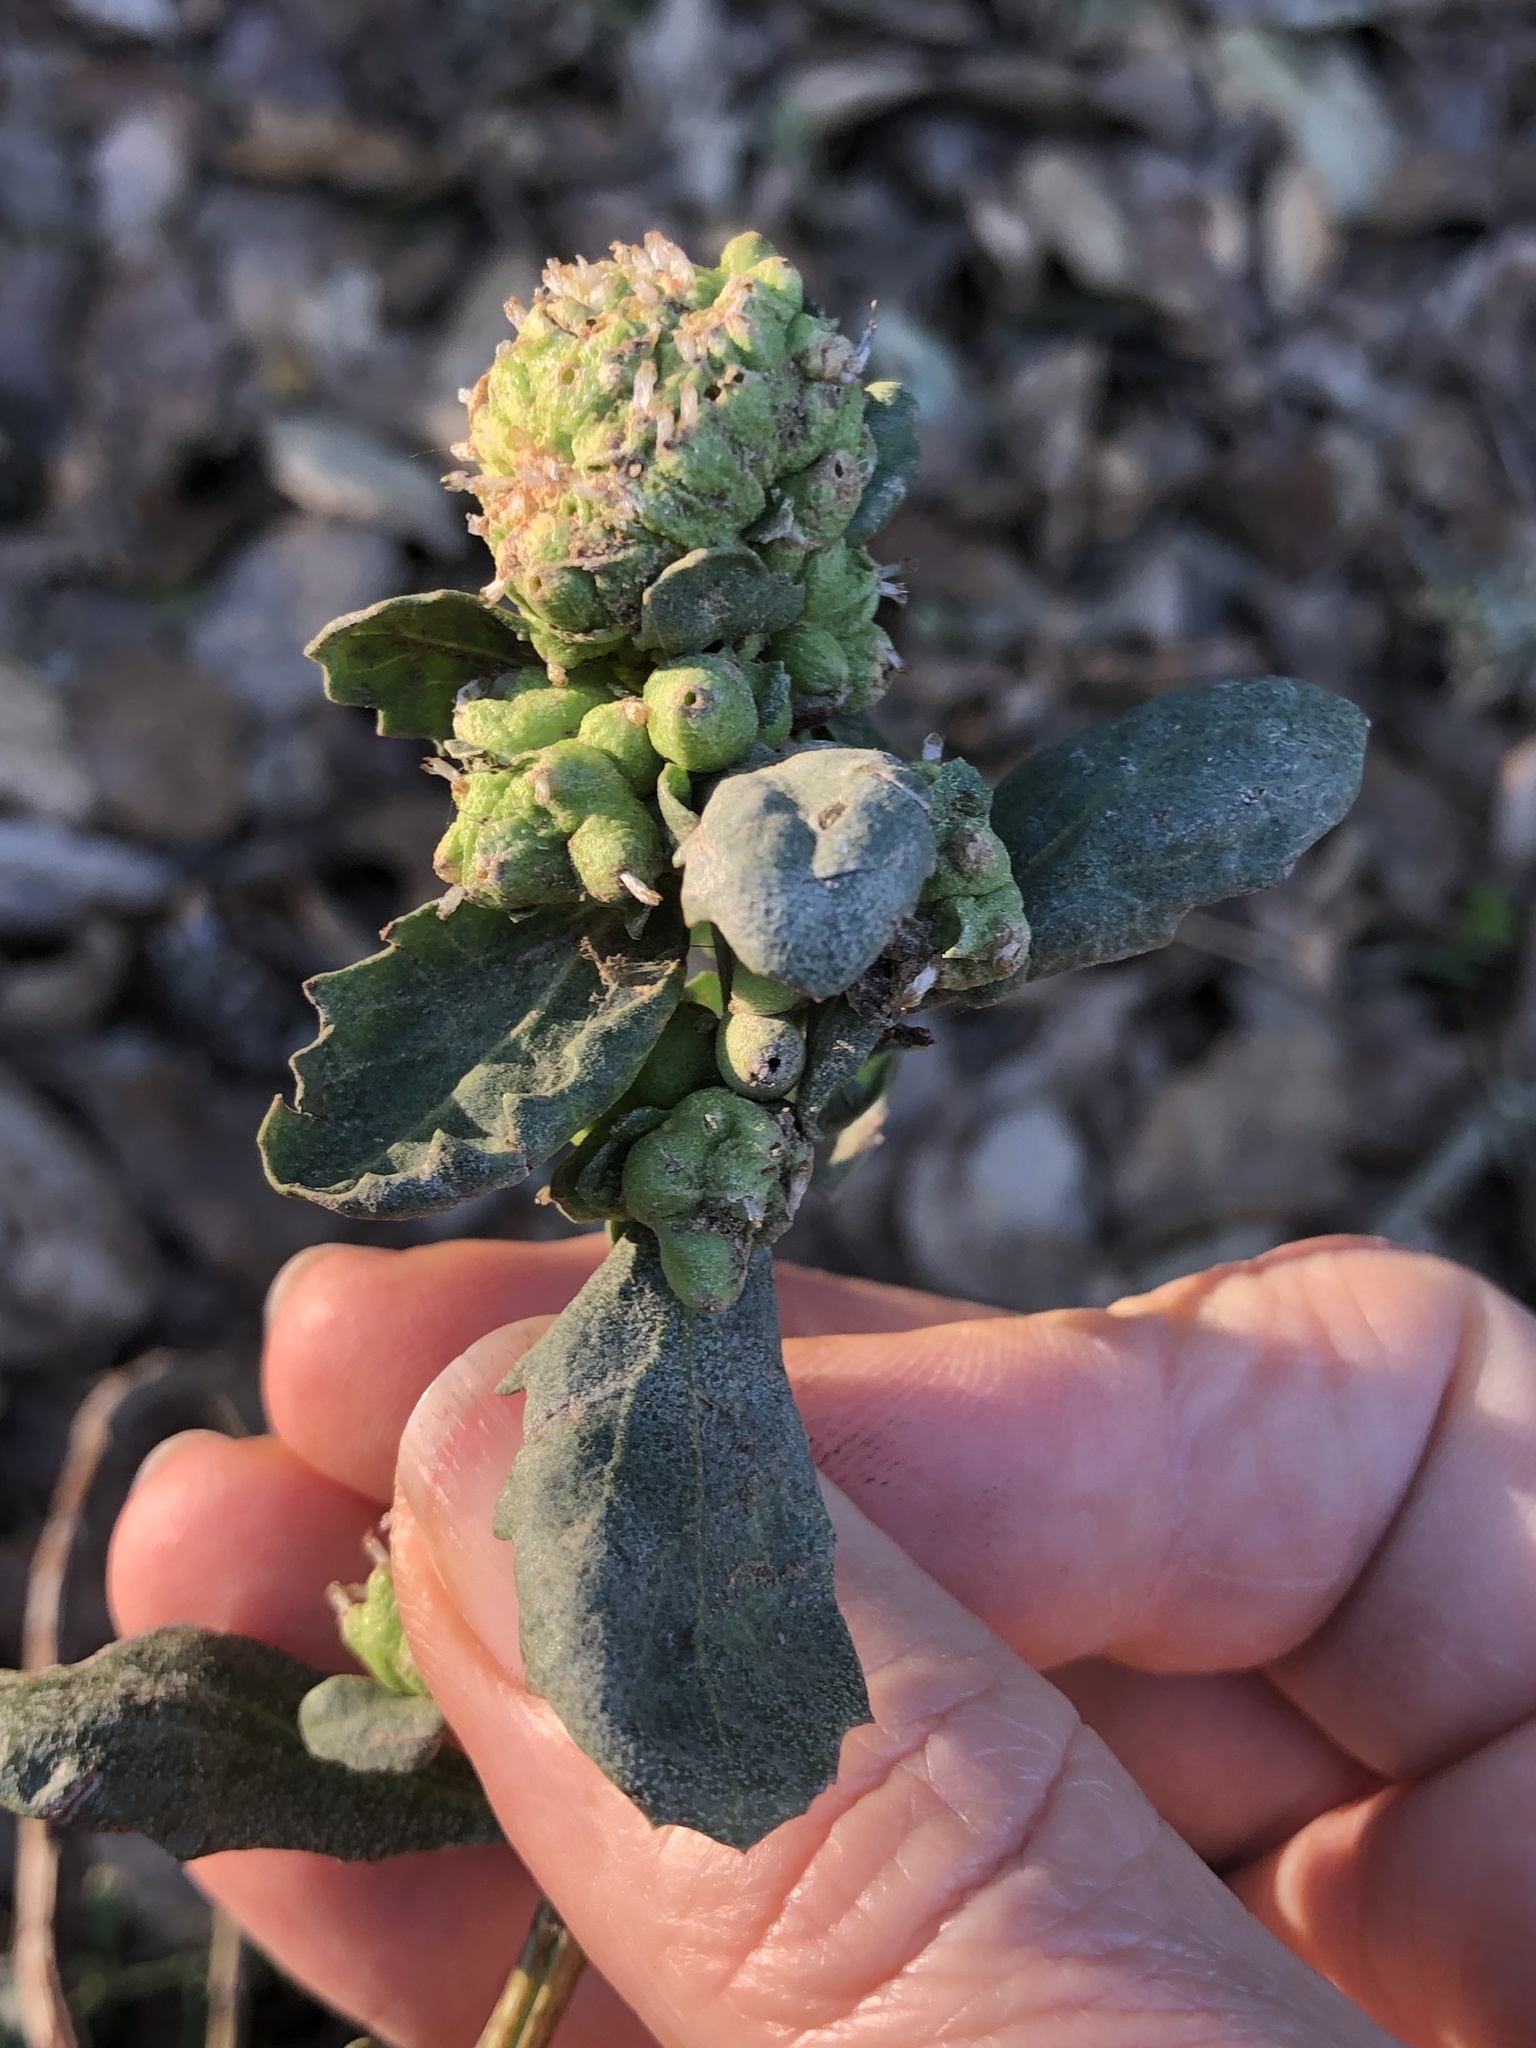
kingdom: Animalia
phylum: Arthropoda
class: Insecta
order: Diptera
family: Cecidomyiidae
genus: Rhopalomyia
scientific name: Rhopalomyia californica
